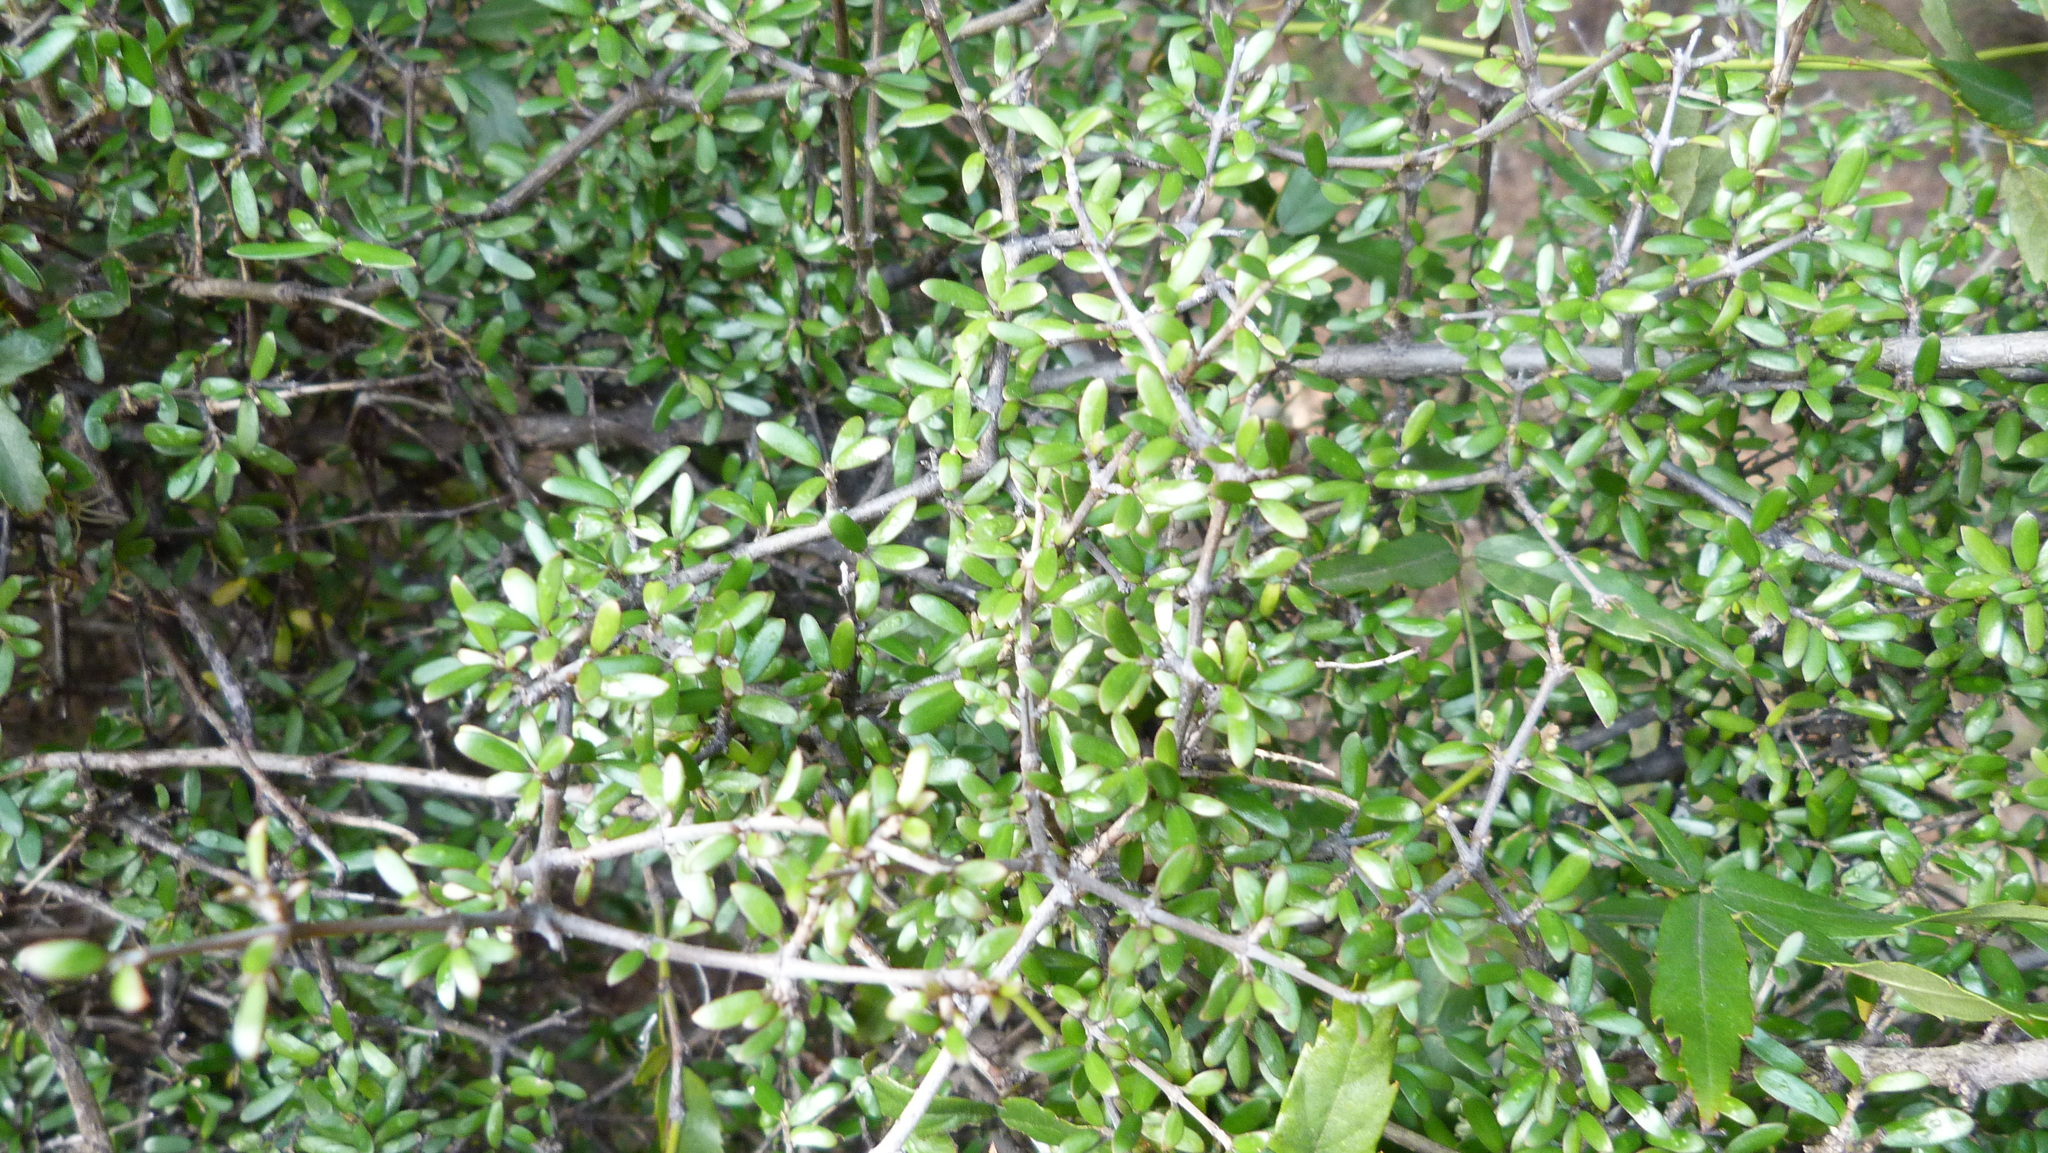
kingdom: Plantae
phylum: Tracheophyta
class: Magnoliopsida
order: Gentianales
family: Rubiaceae
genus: Coprosma
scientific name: Coprosma propinqua
